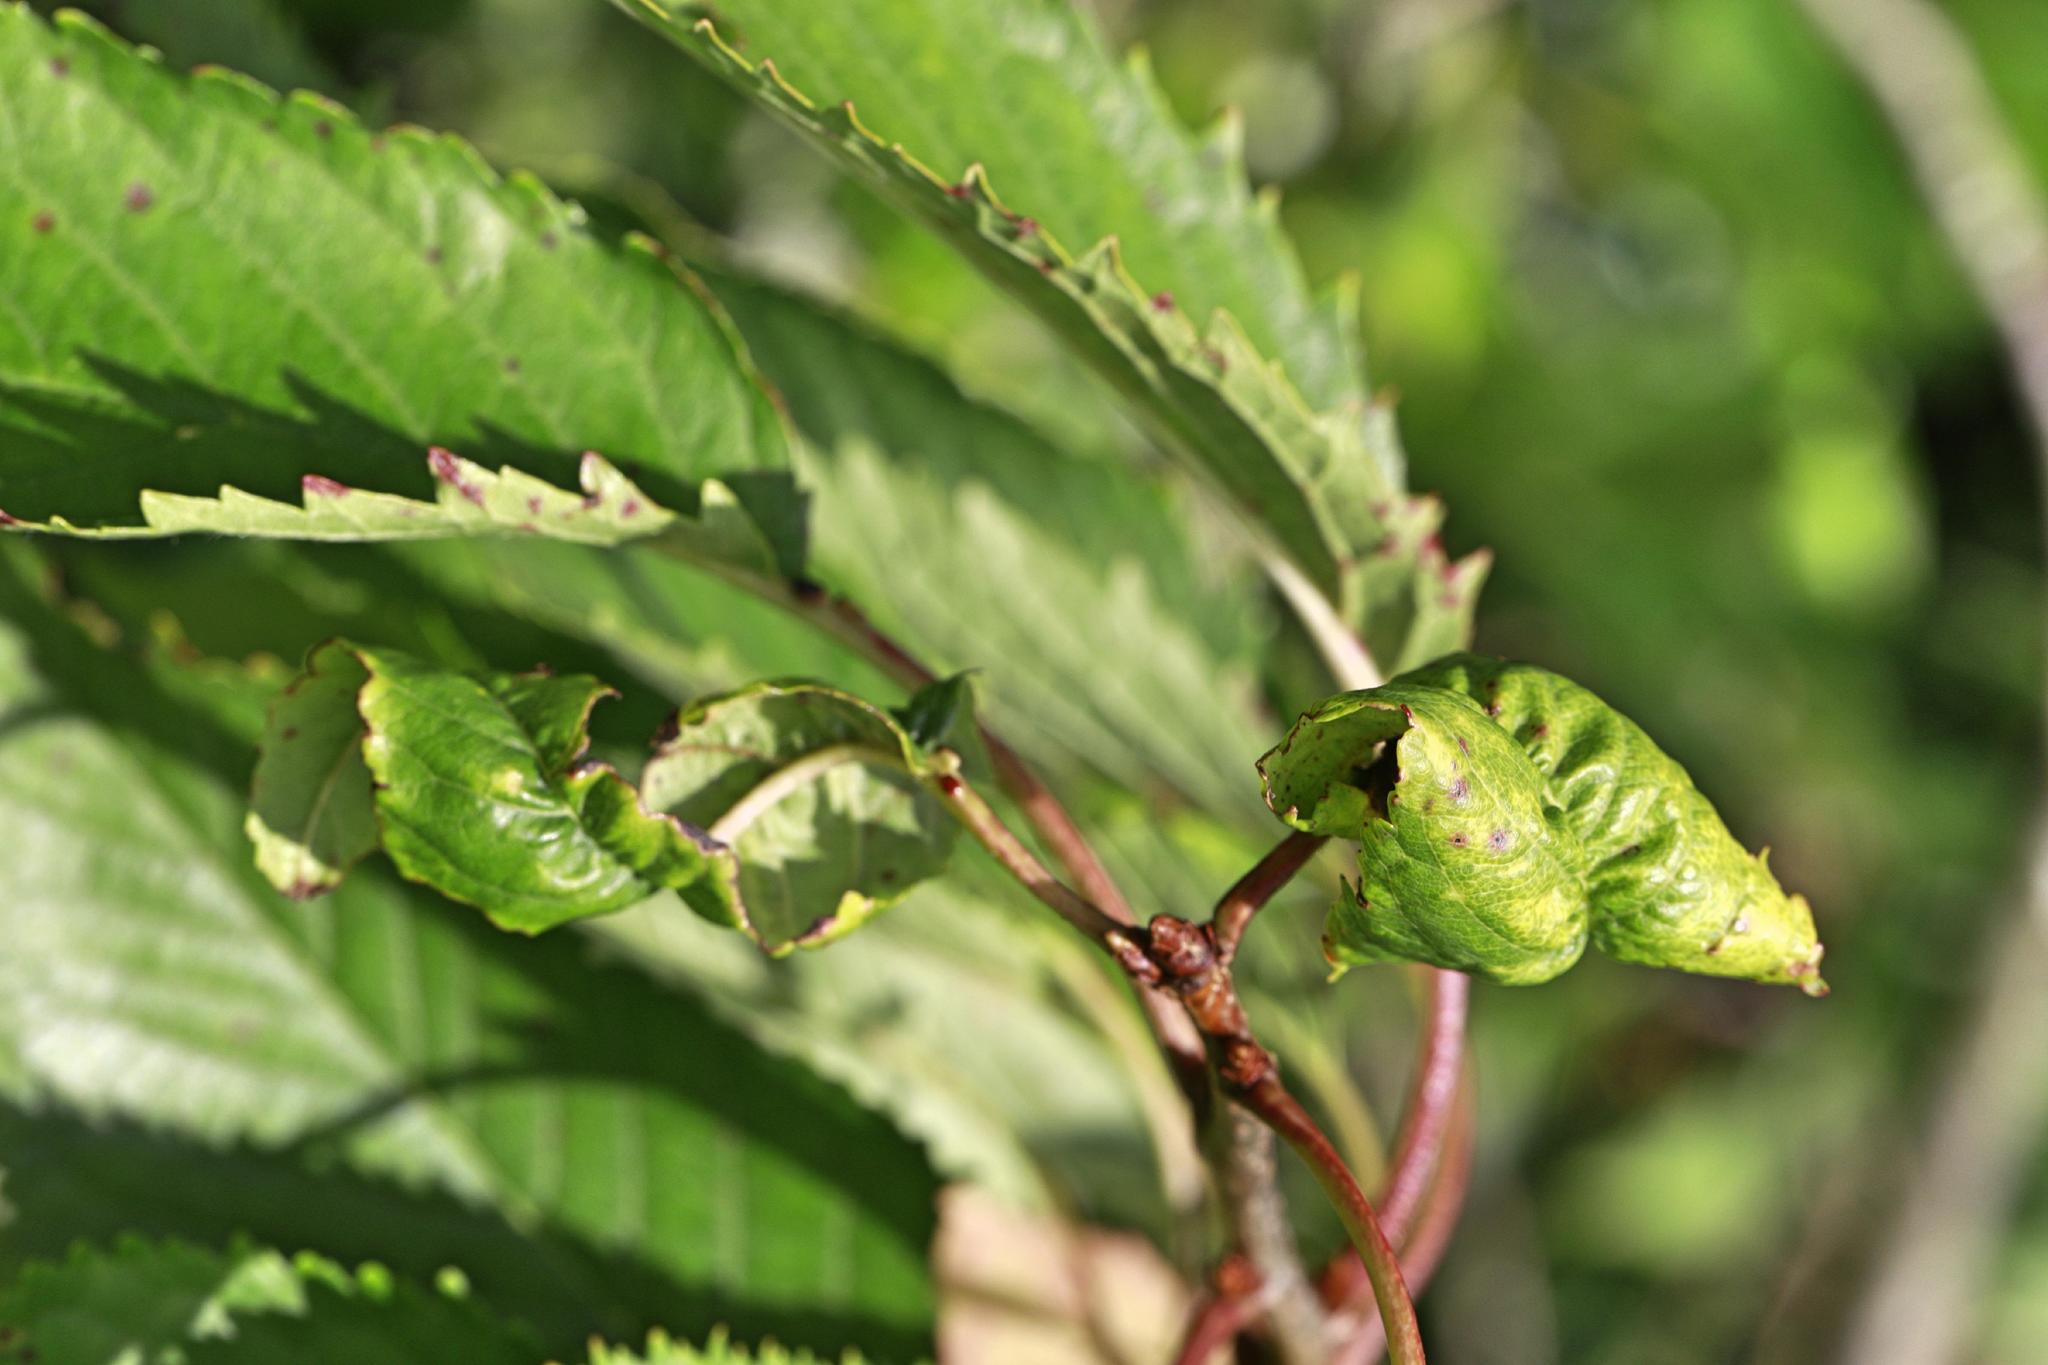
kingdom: Animalia
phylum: Arthropoda
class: Insecta
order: Hemiptera
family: Aphididae
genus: Myzus
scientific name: Myzus cerasi
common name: Black cherry aphid
